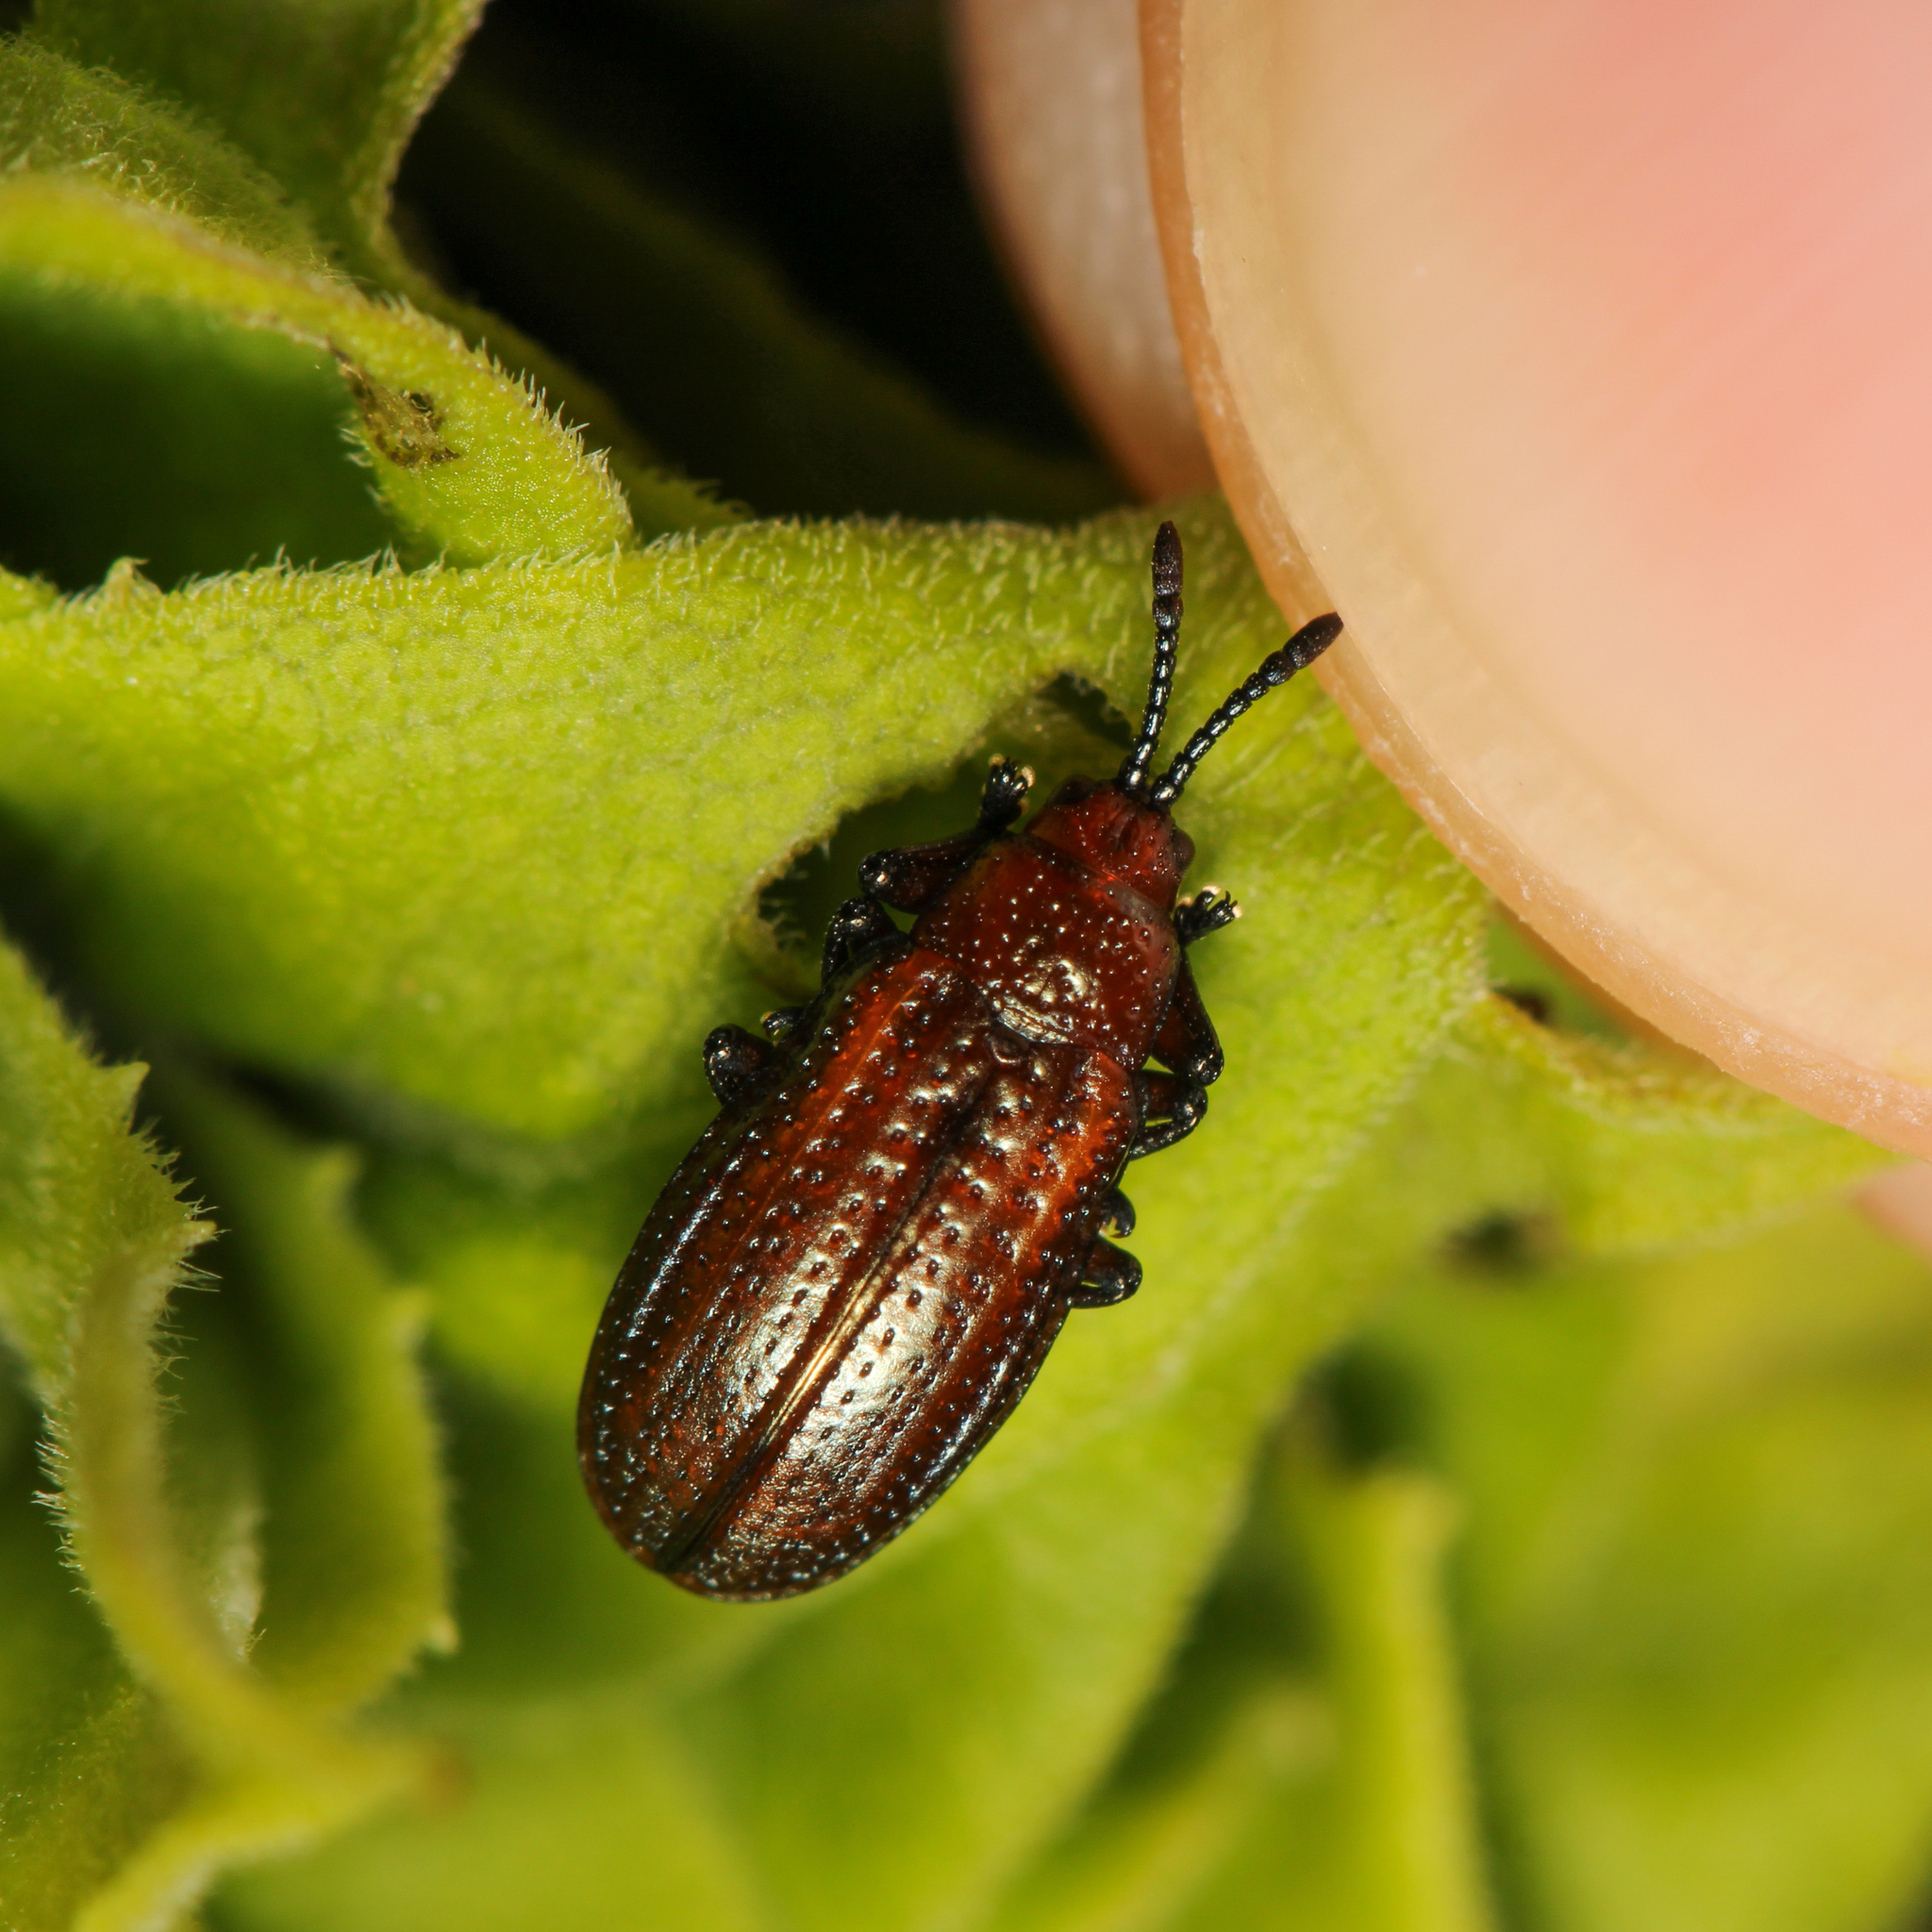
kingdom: Animalia
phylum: Arthropoda
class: Insecta
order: Coleoptera
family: Chrysomelidae
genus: Microrhopala
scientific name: Microrhopala vittata
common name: Goldenrod leaf miner beetle
